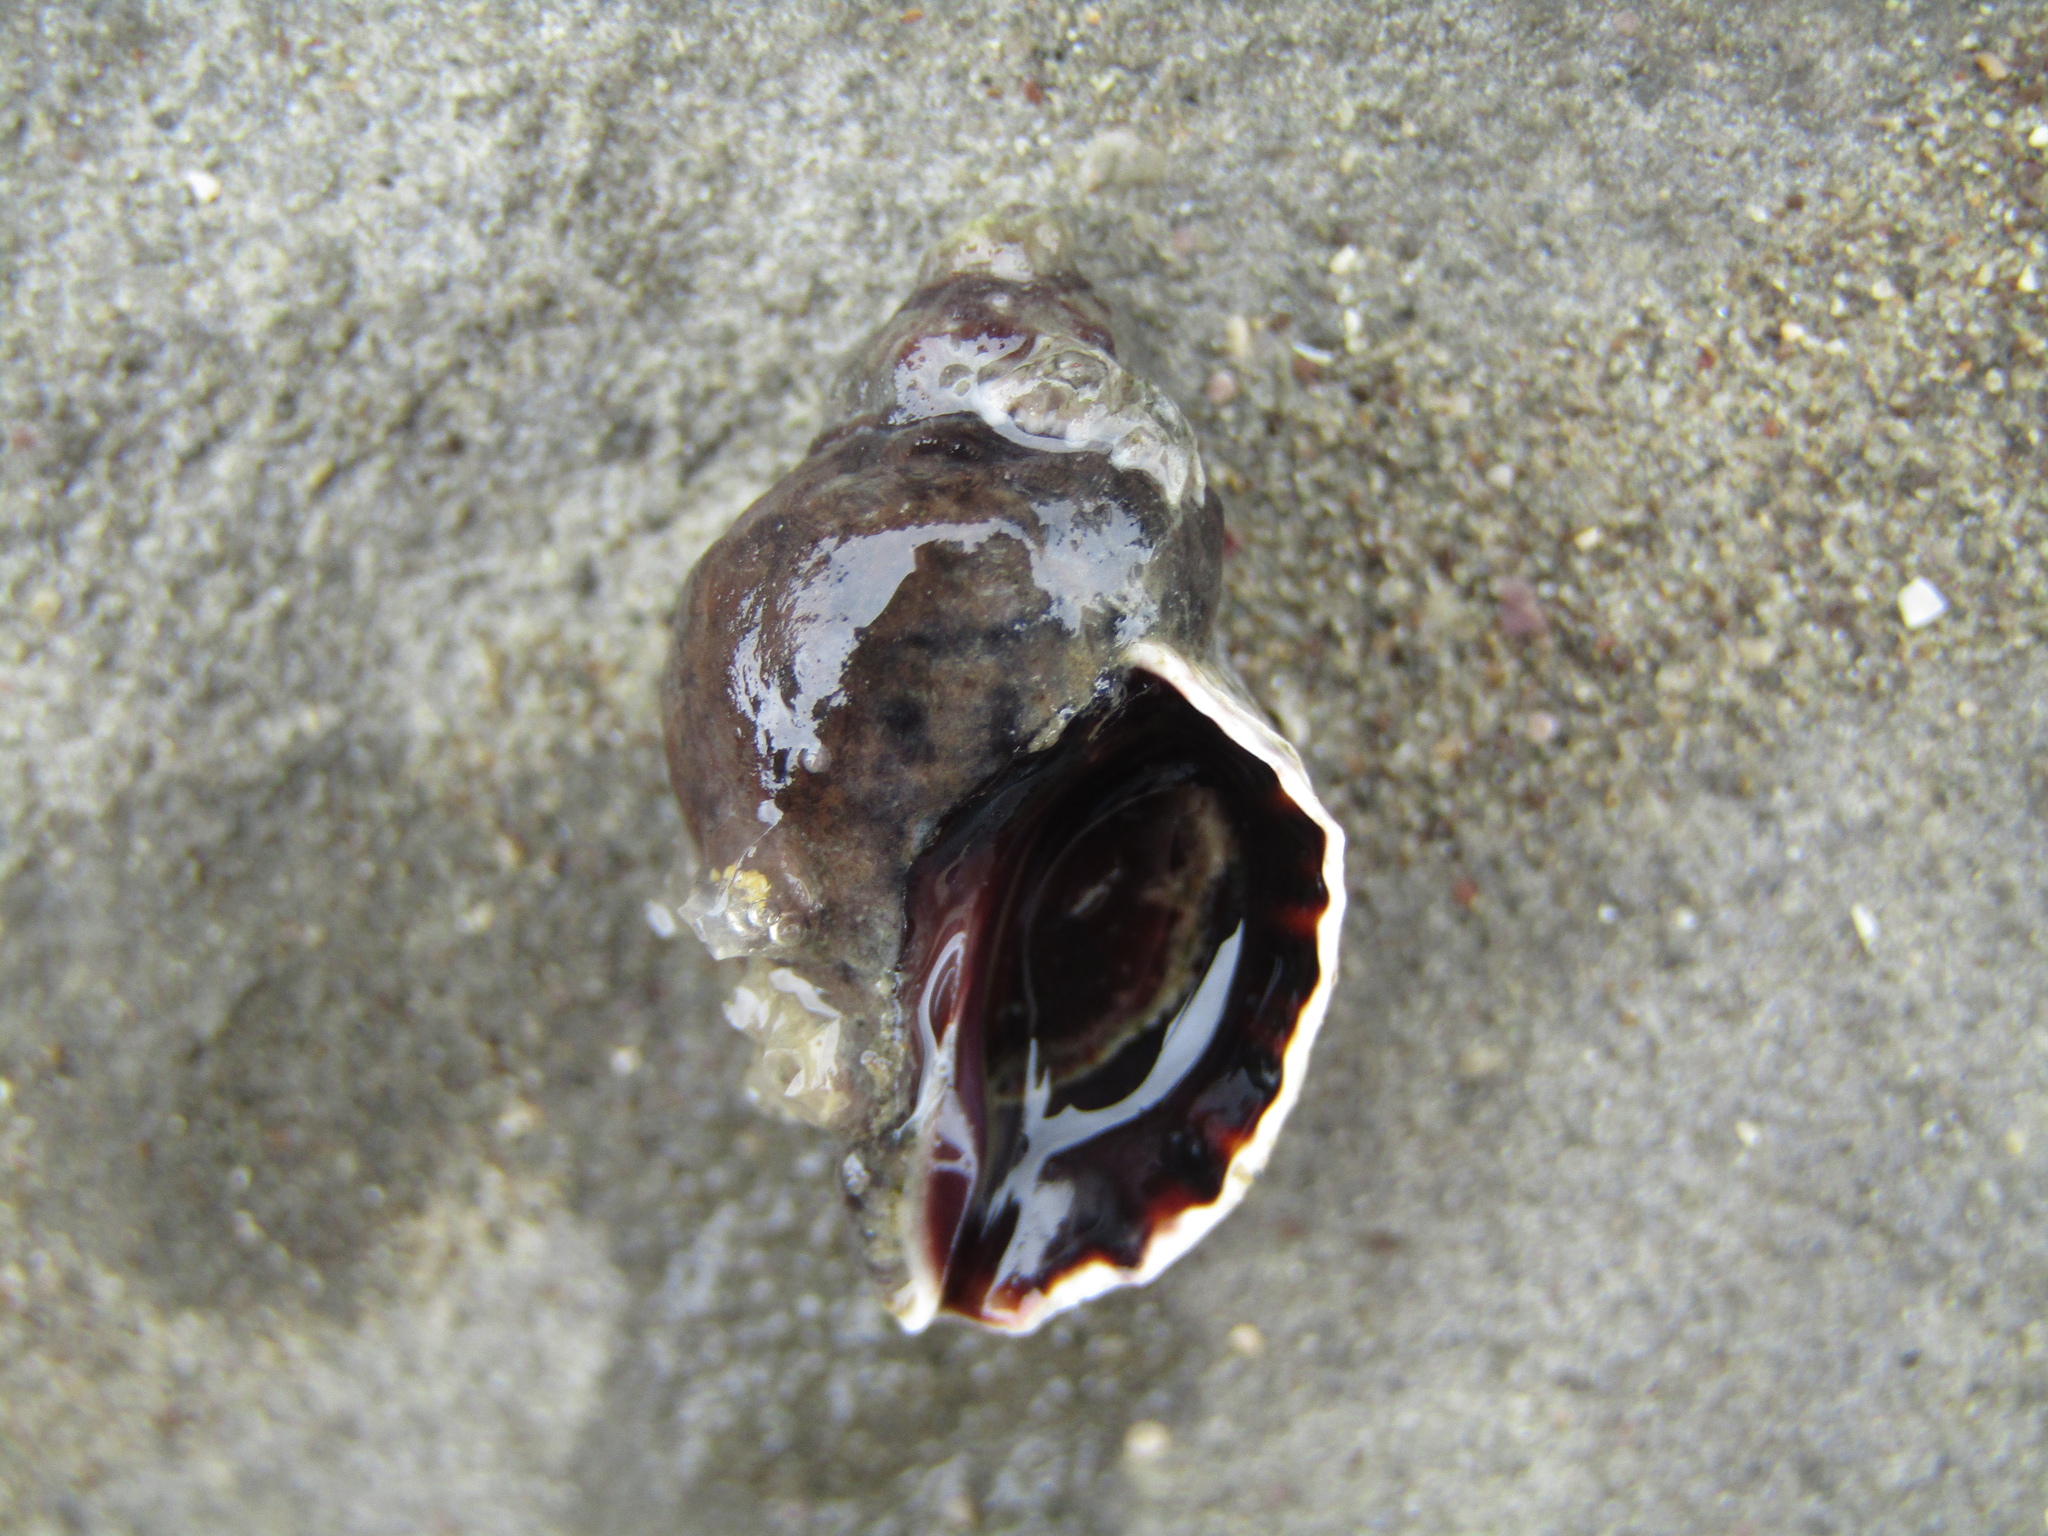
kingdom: Animalia
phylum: Mollusca
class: Gastropoda
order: Neogastropoda
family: Muricidae
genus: Haustrum
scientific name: Haustrum albomarginatum
